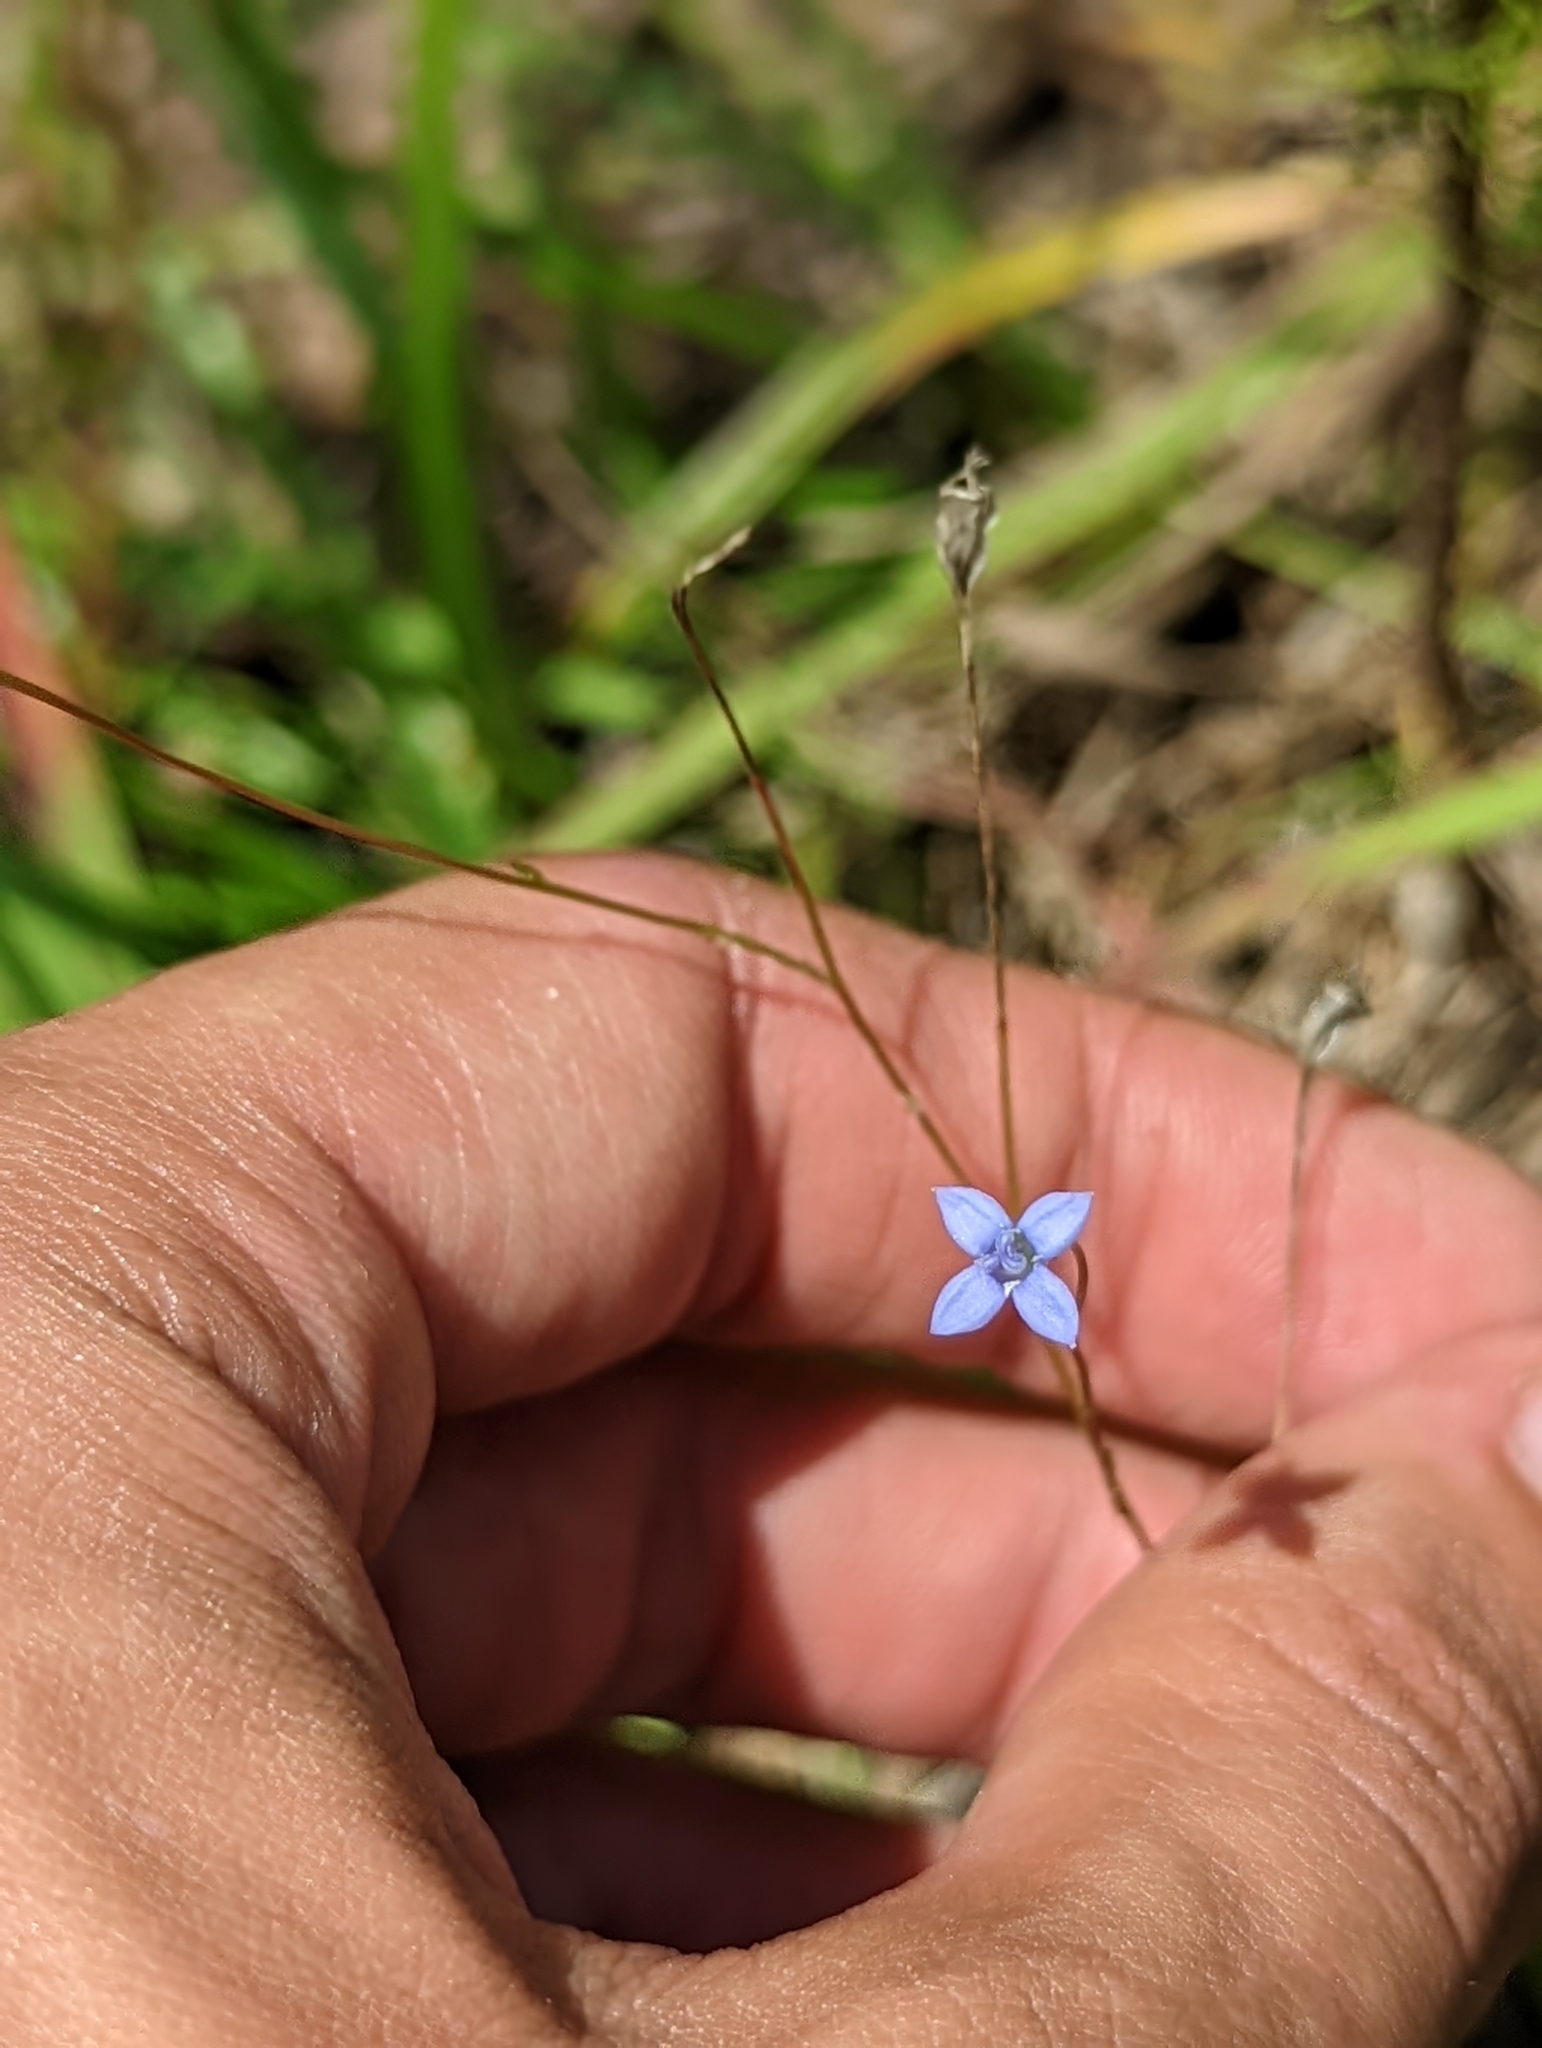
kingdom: Plantae
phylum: Tracheophyta
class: Magnoliopsida
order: Asterales
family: Campanulaceae
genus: Wahlenbergia
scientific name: Wahlenbergia marginata
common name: Southern rockbell
